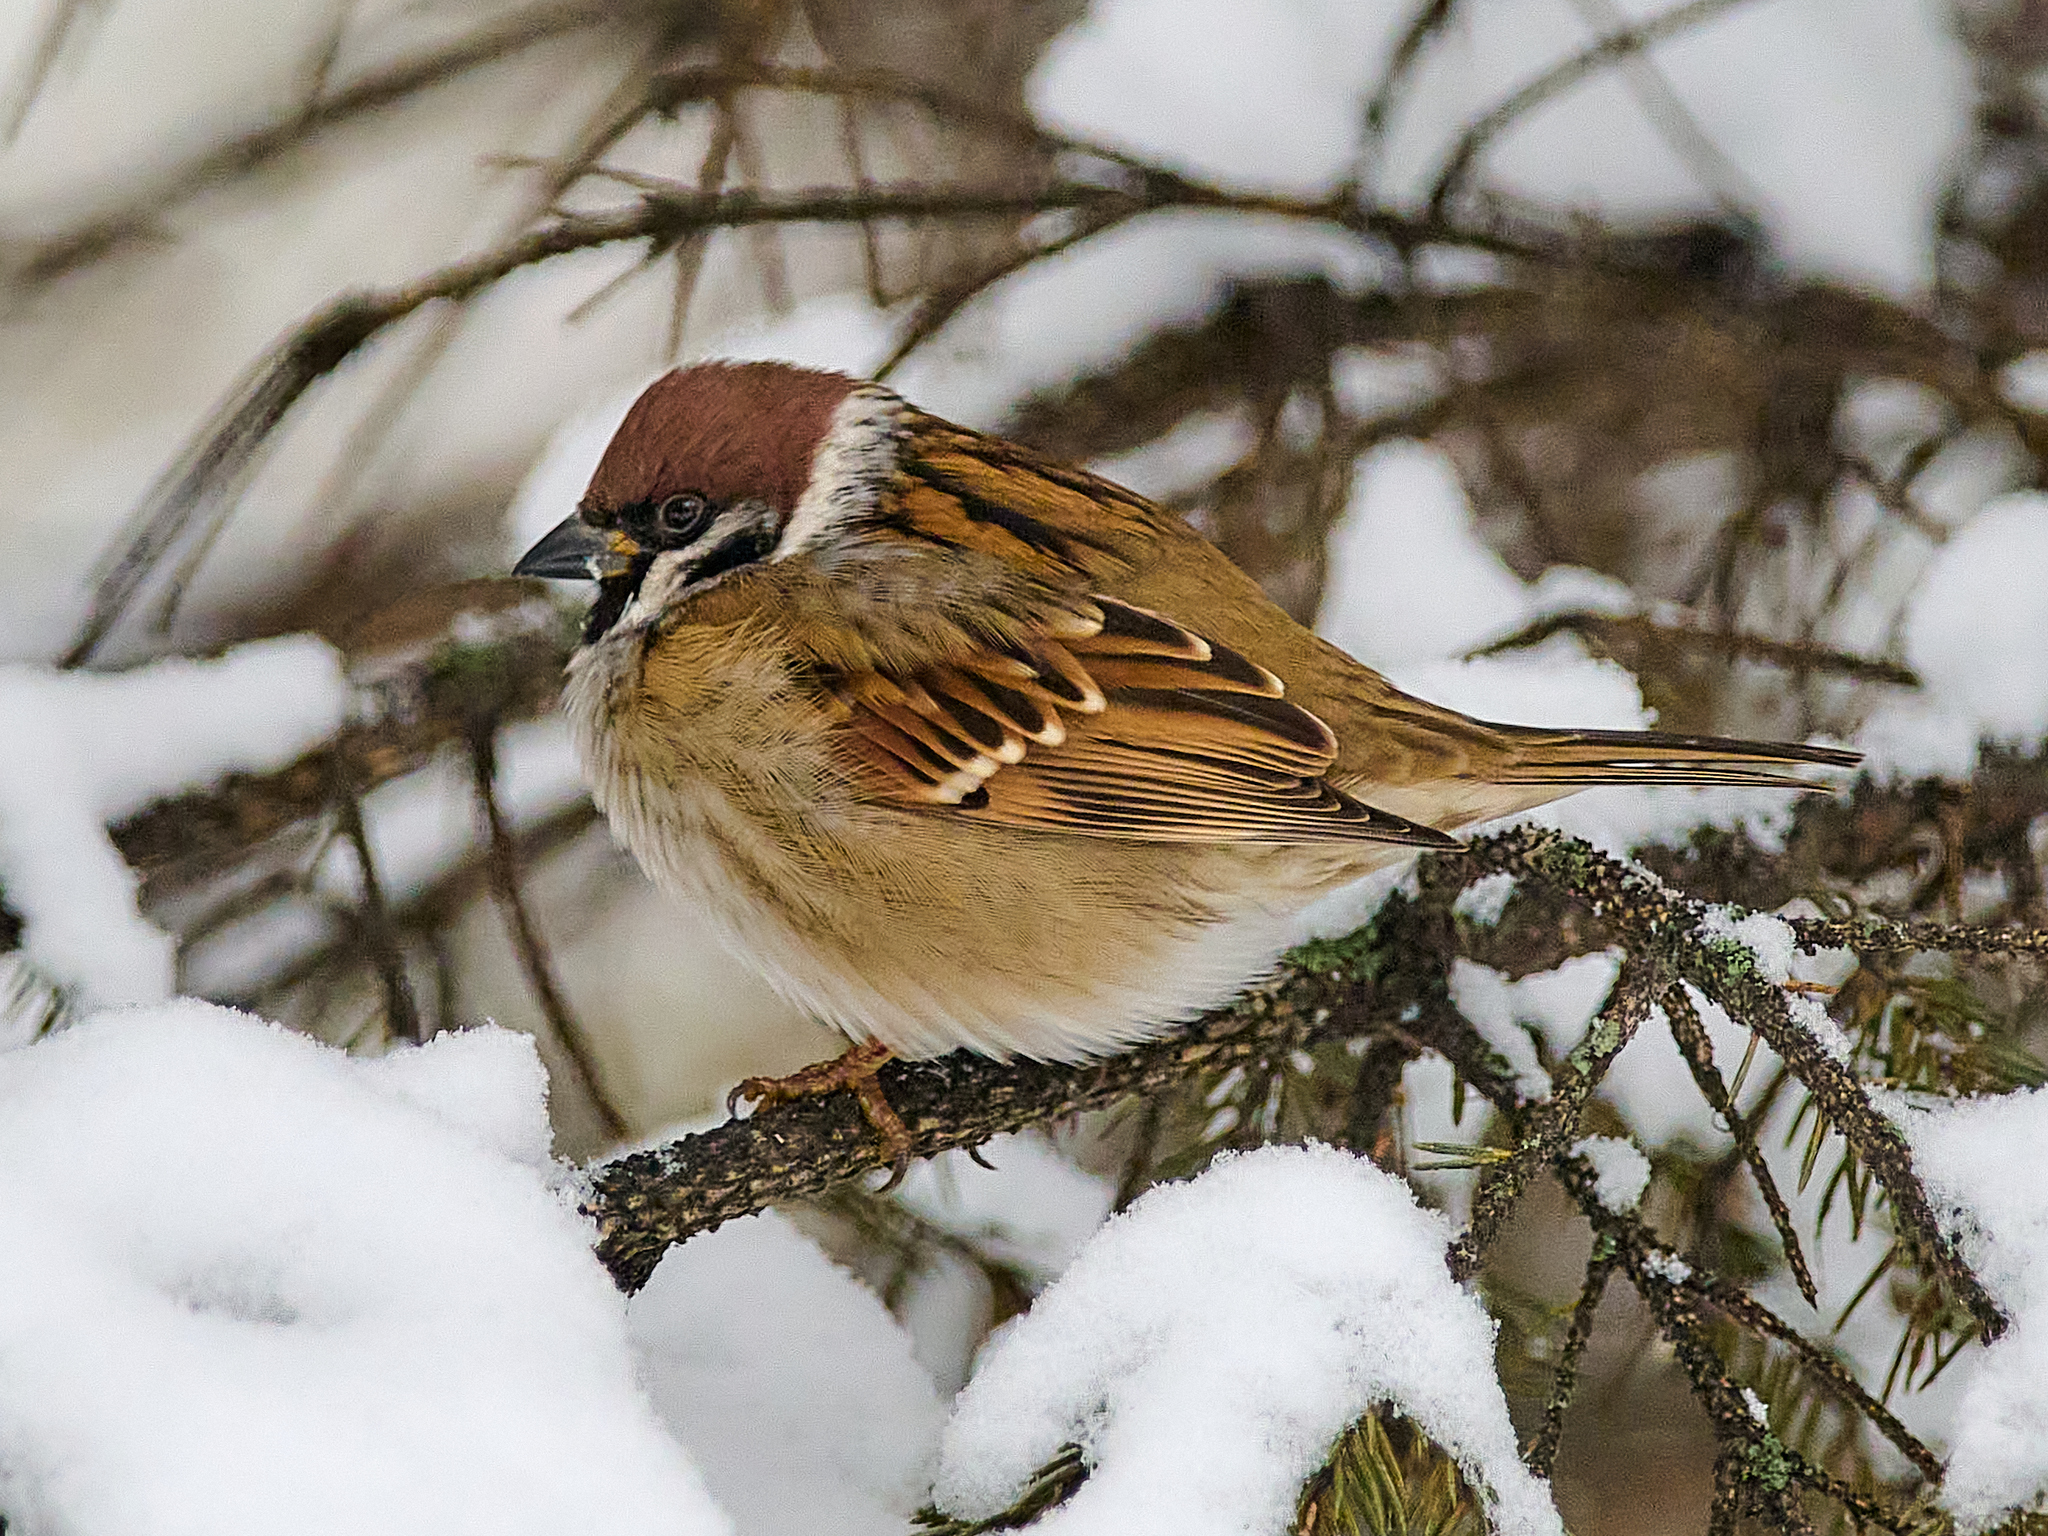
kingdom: Animalia
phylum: Chordata
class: Aves
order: Passeriformes
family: Passeridae
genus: Passer
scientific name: Passer montanus
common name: Eurasian tree sparrow
